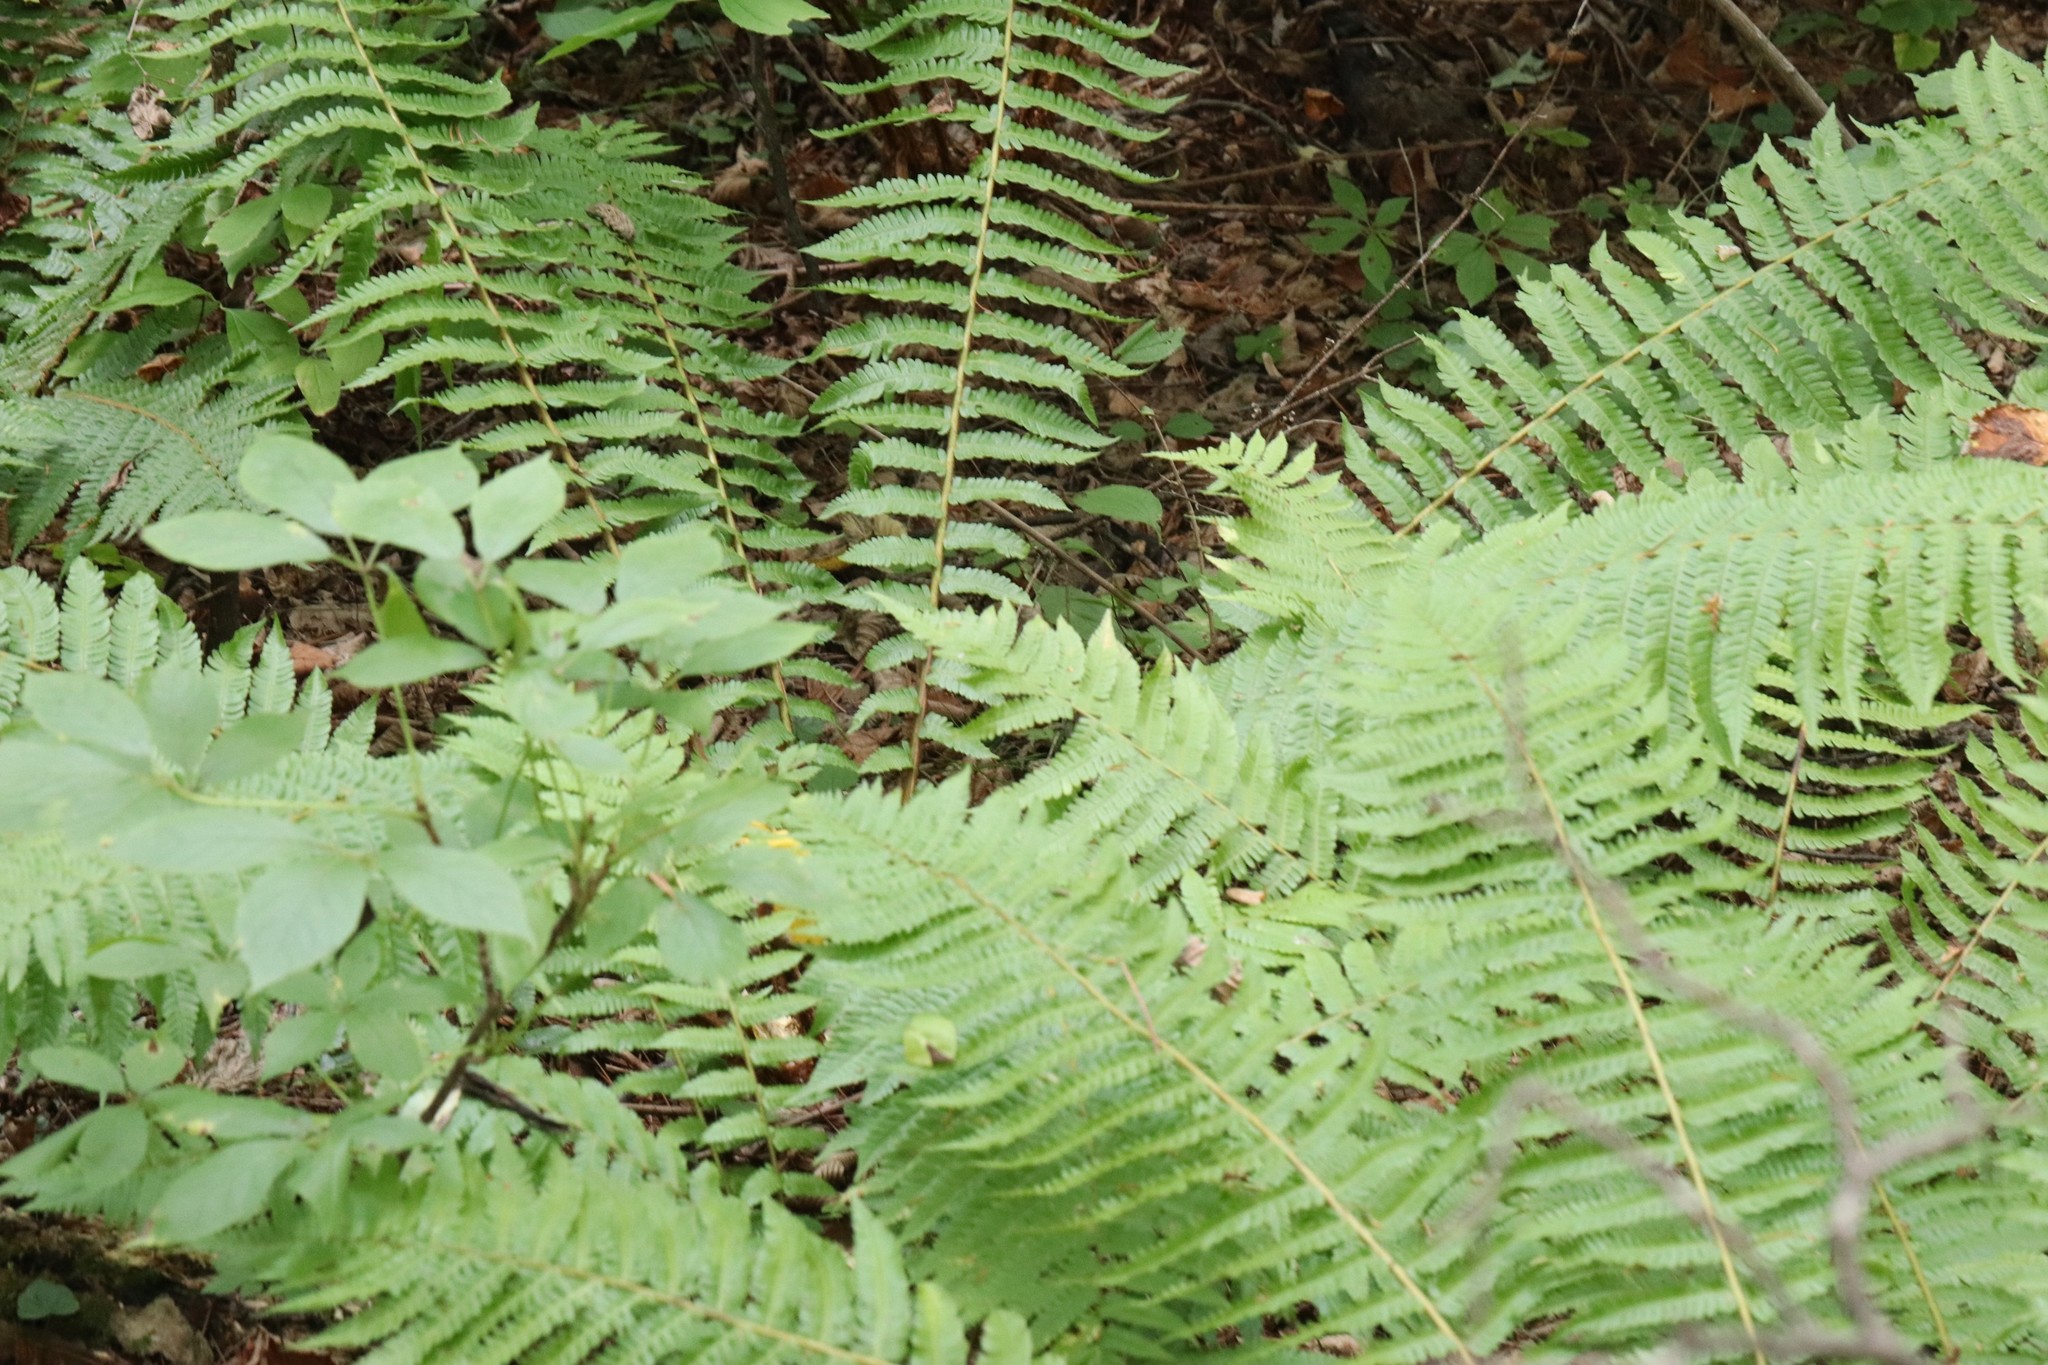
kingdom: Plantae
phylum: Tracheophyta
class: Polypodiopsida
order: Polypodiales
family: Dryopteridaceae
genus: Dryopteris
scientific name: Dryopteris crassirhizoma
